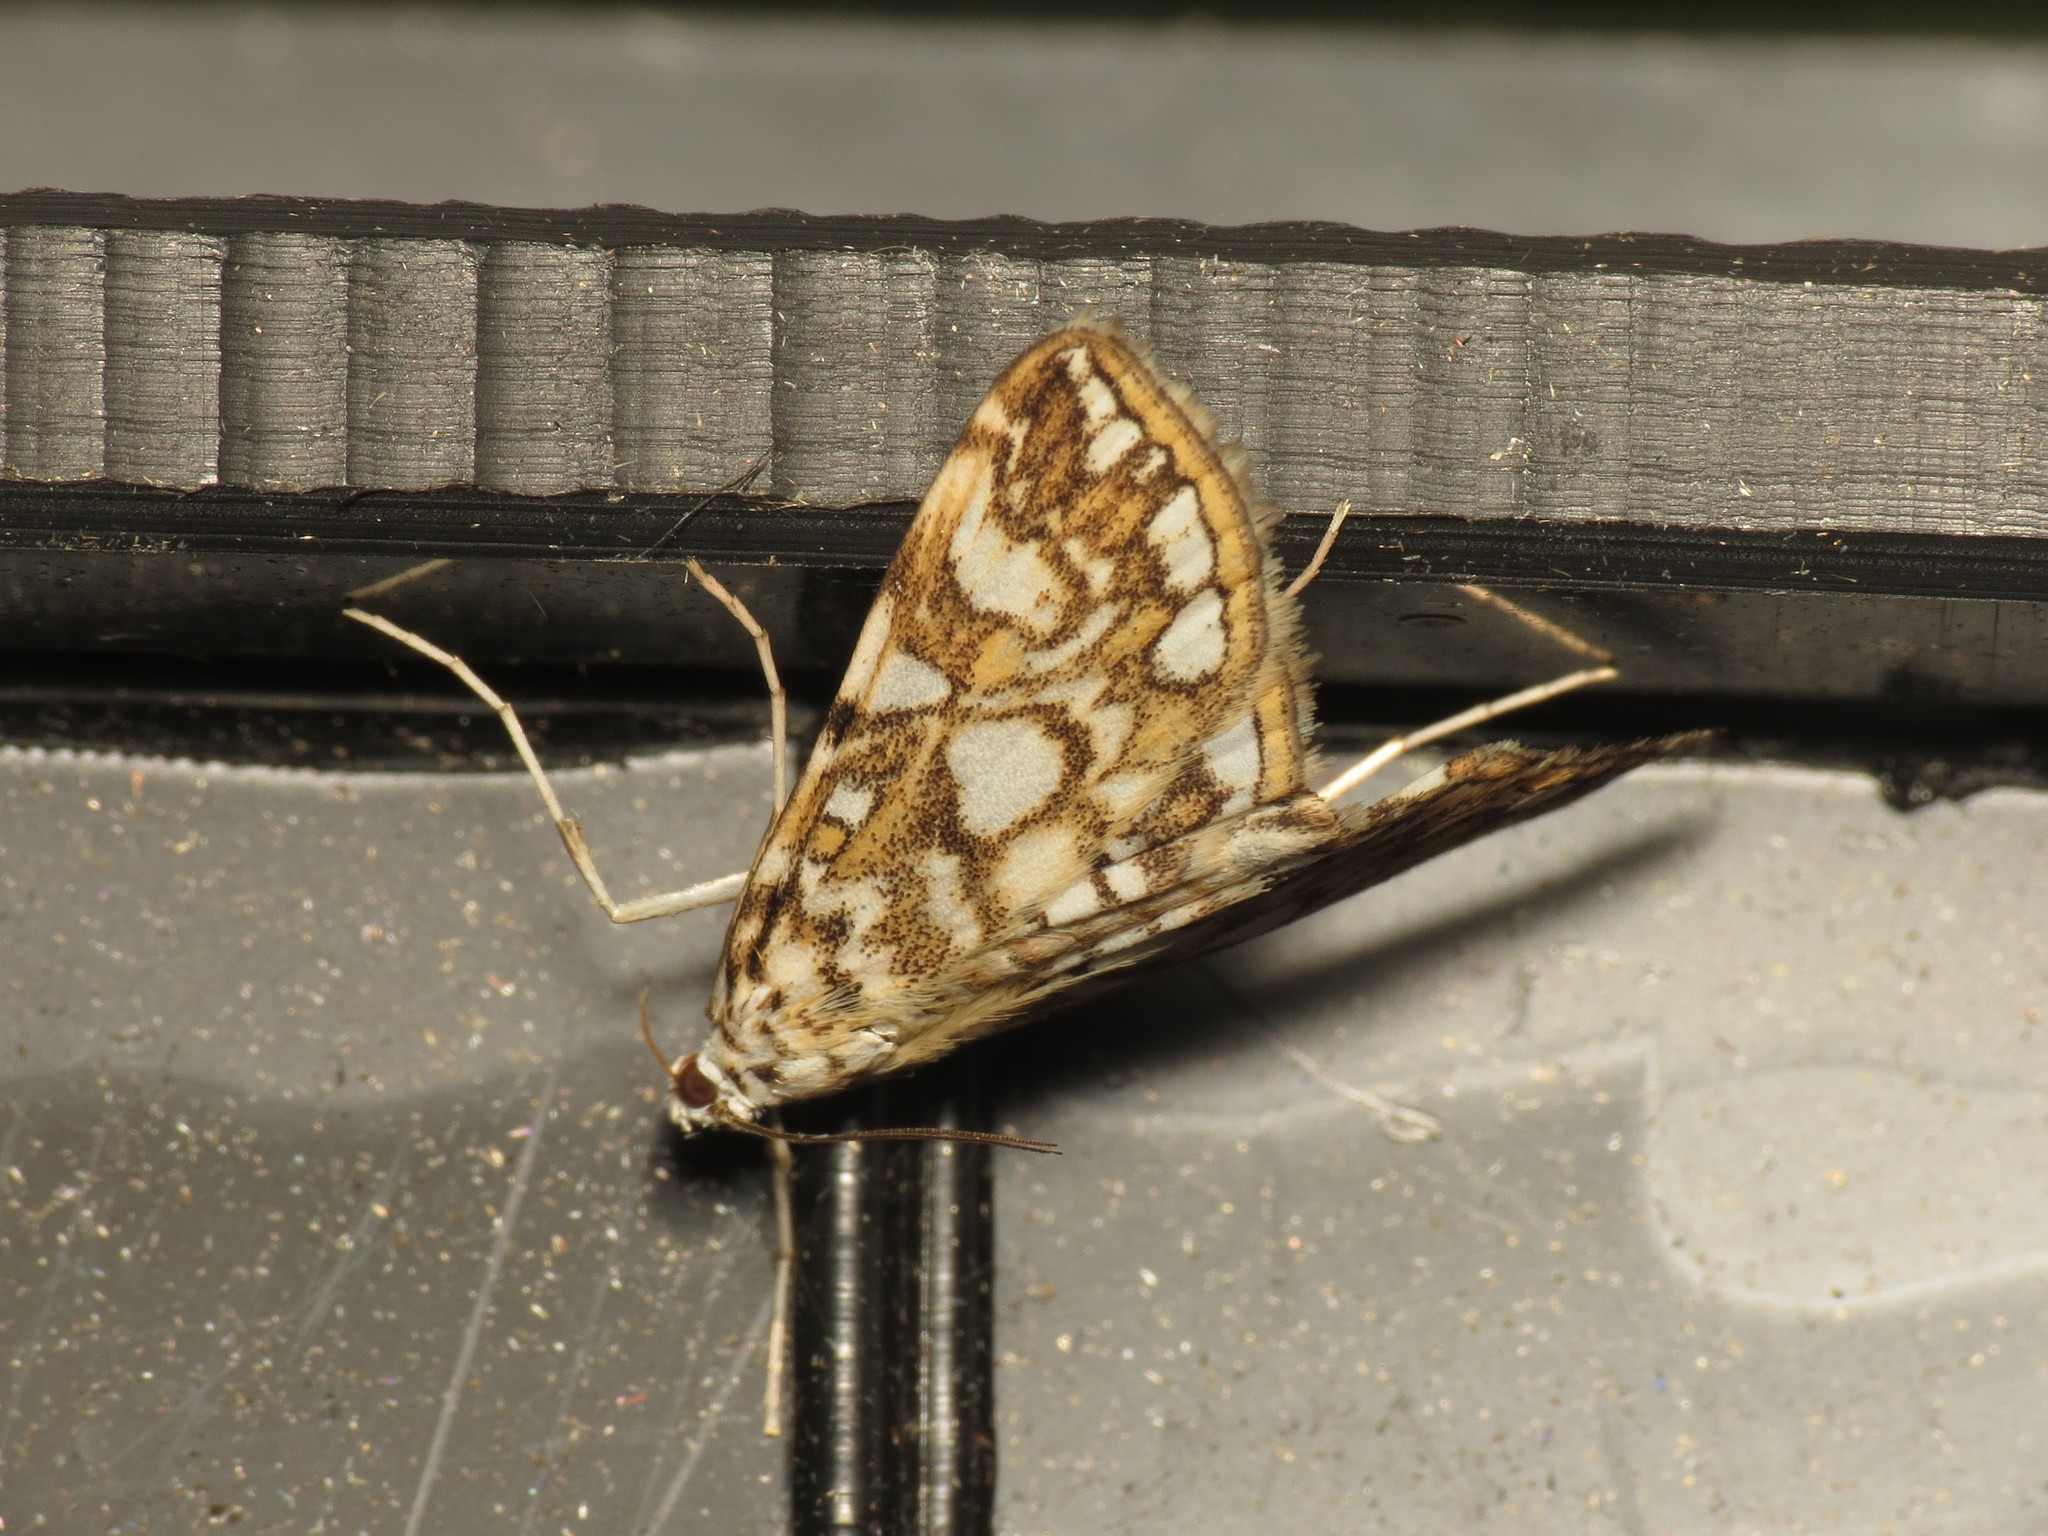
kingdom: Animalia
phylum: Arthropoda
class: Insecta
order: Lepidoptera
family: Crambidae
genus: Elophila
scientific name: Elophila nymphaeata
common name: Brown china-mark
